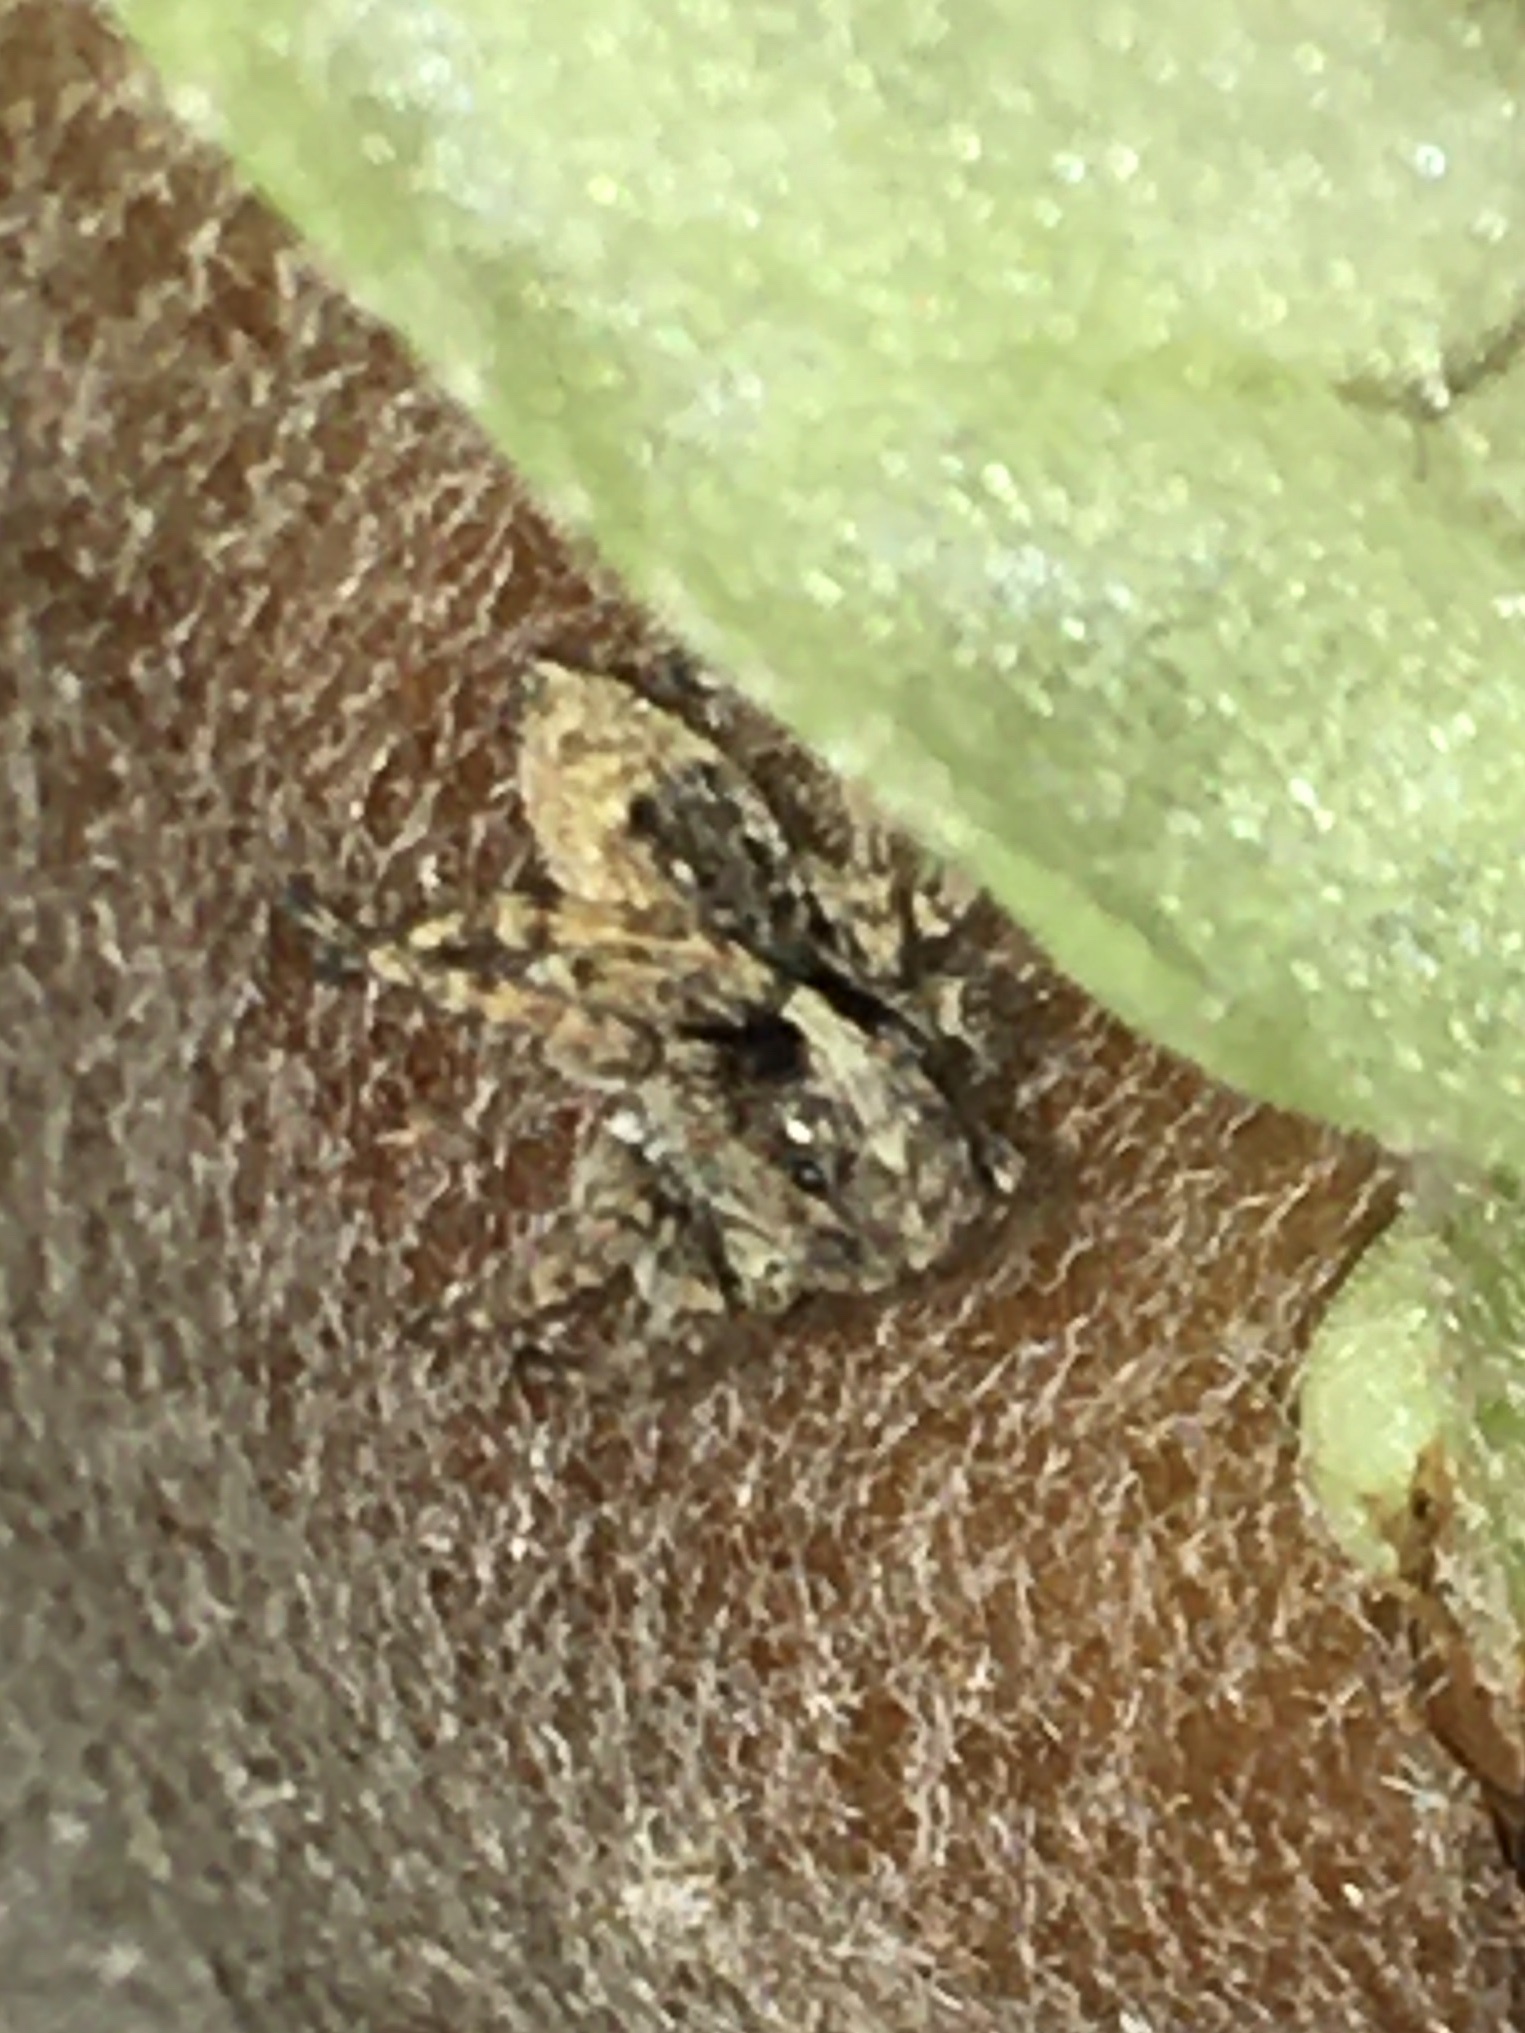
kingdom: Animalia
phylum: Arthropoda
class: Arachnida
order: Araneae
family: Salticidae
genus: Attulus
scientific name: Attulus fasciger
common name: Asiatic wall jumping spider
